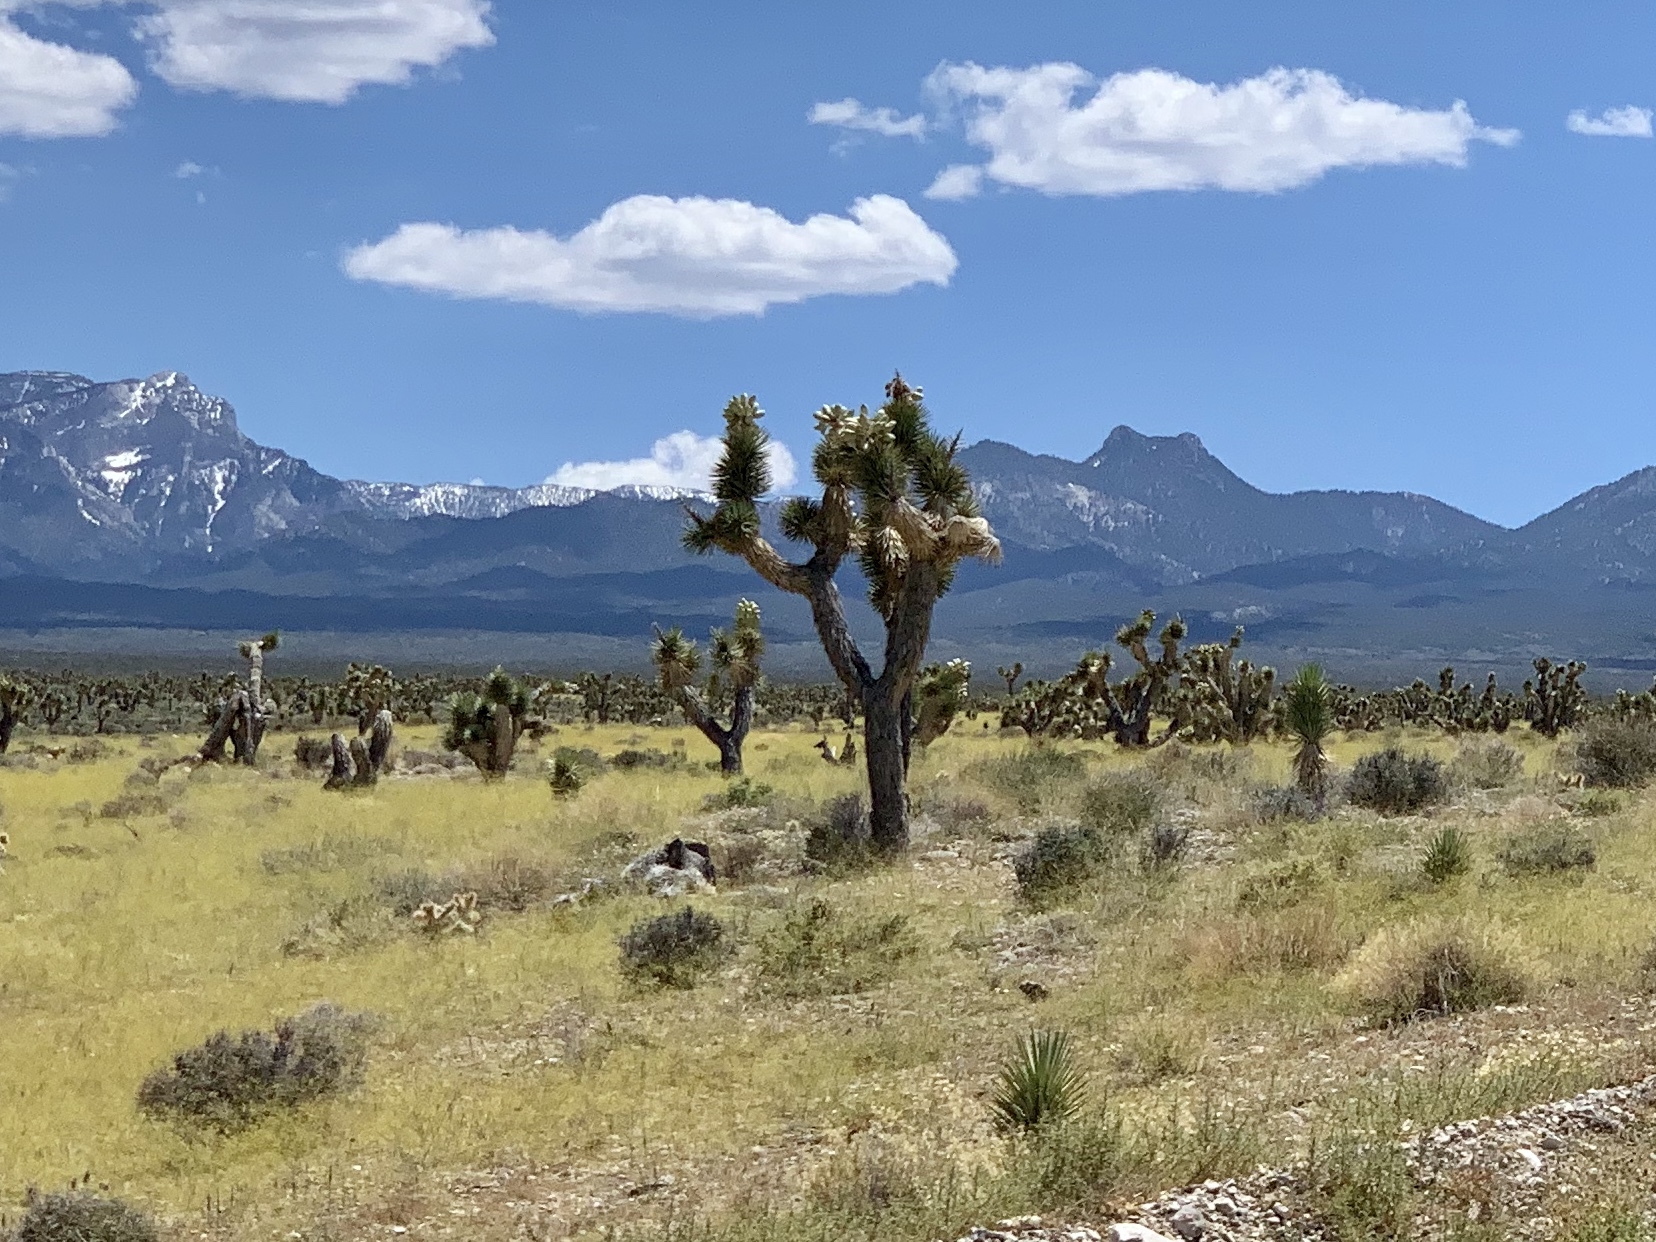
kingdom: Plantae
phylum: Tracheophyta
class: Liliopsida
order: Asparagales
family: Asparagaceae
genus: Yucca
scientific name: Yucca brevifolia
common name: Joshua tree
